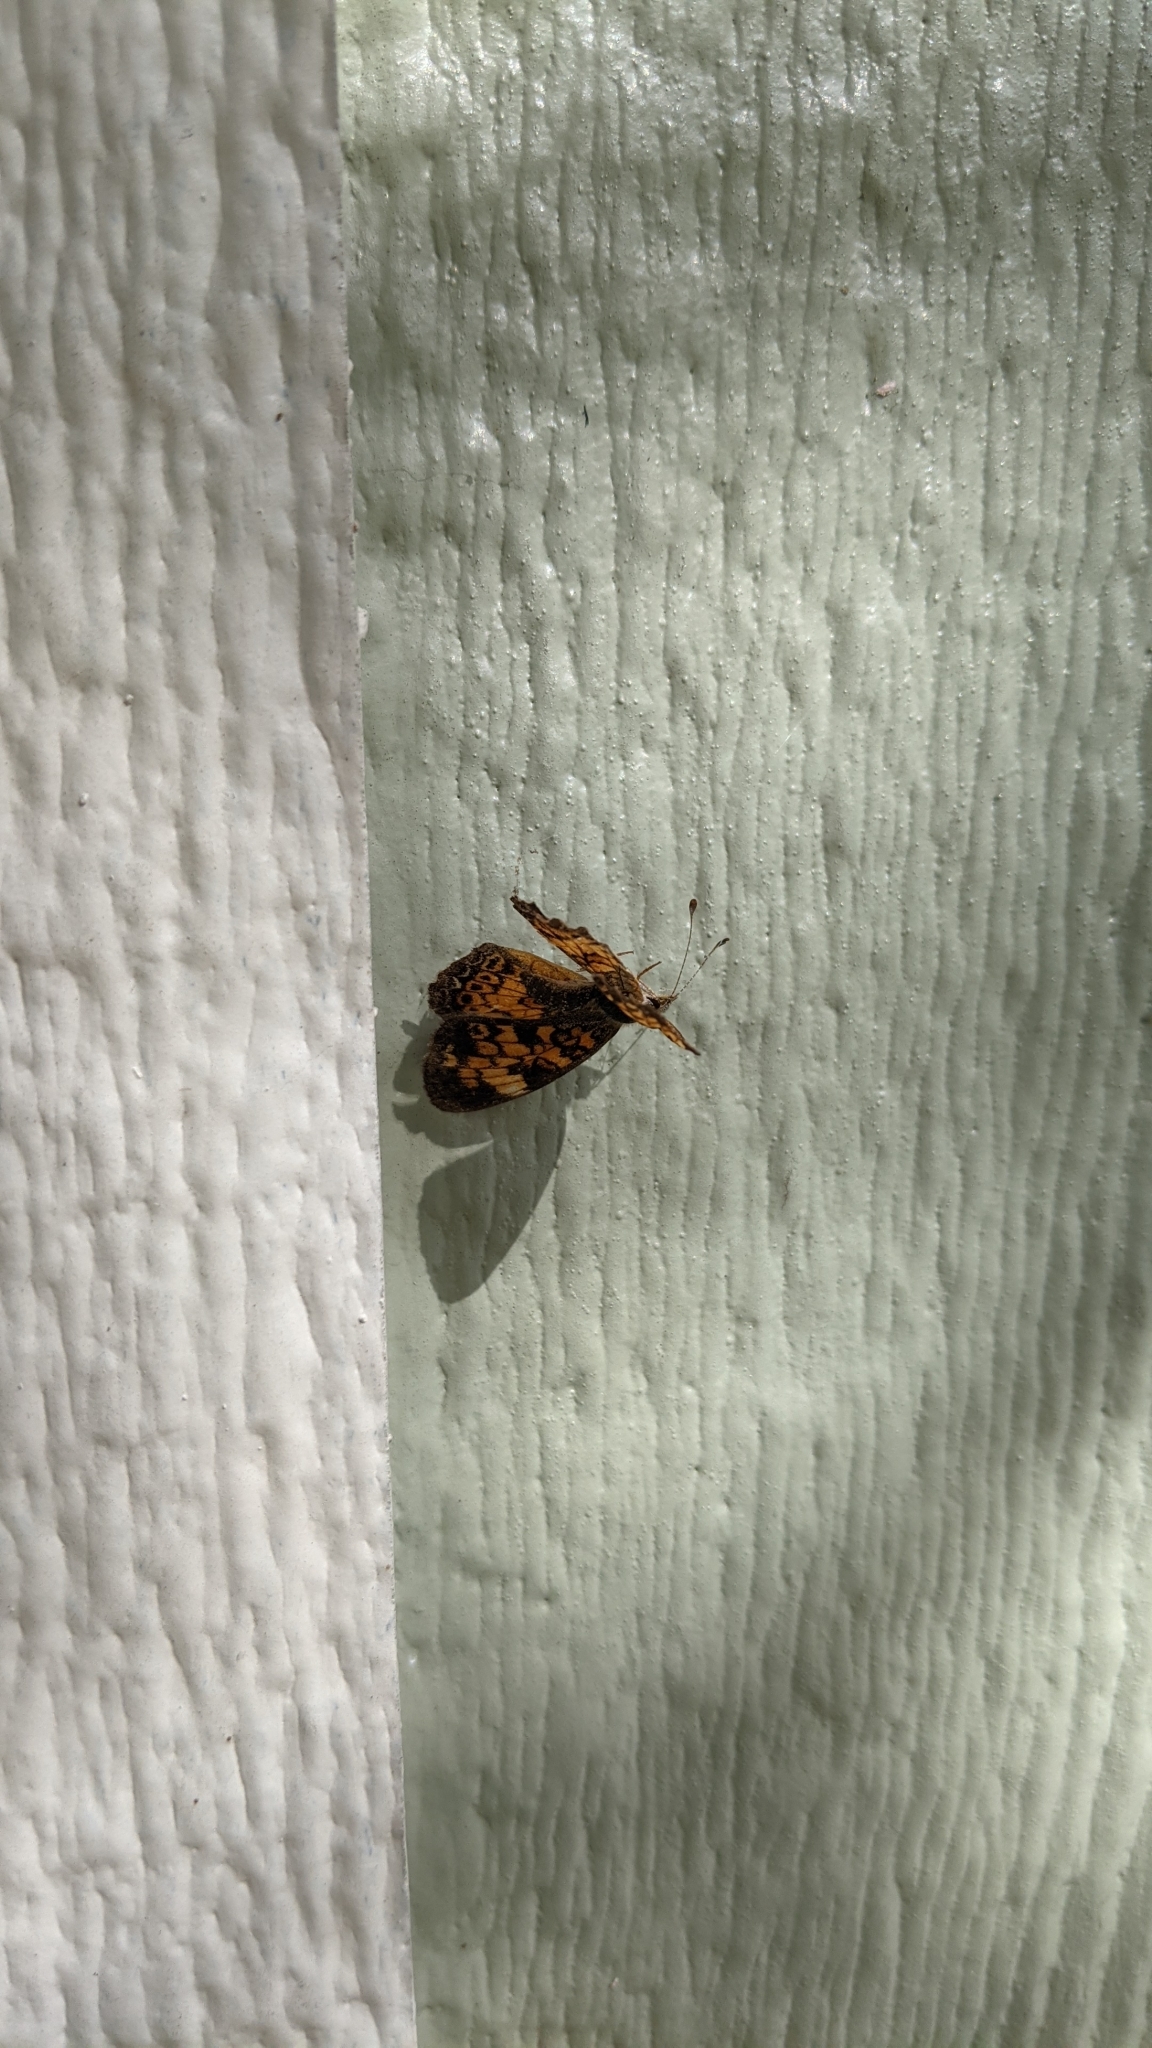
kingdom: Animalia
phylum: Arthropoda
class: Insecta
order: Lepidoptera
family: Nymphalidae
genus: Phyciodes
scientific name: Phyciodes tharos
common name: Pearl crescent
